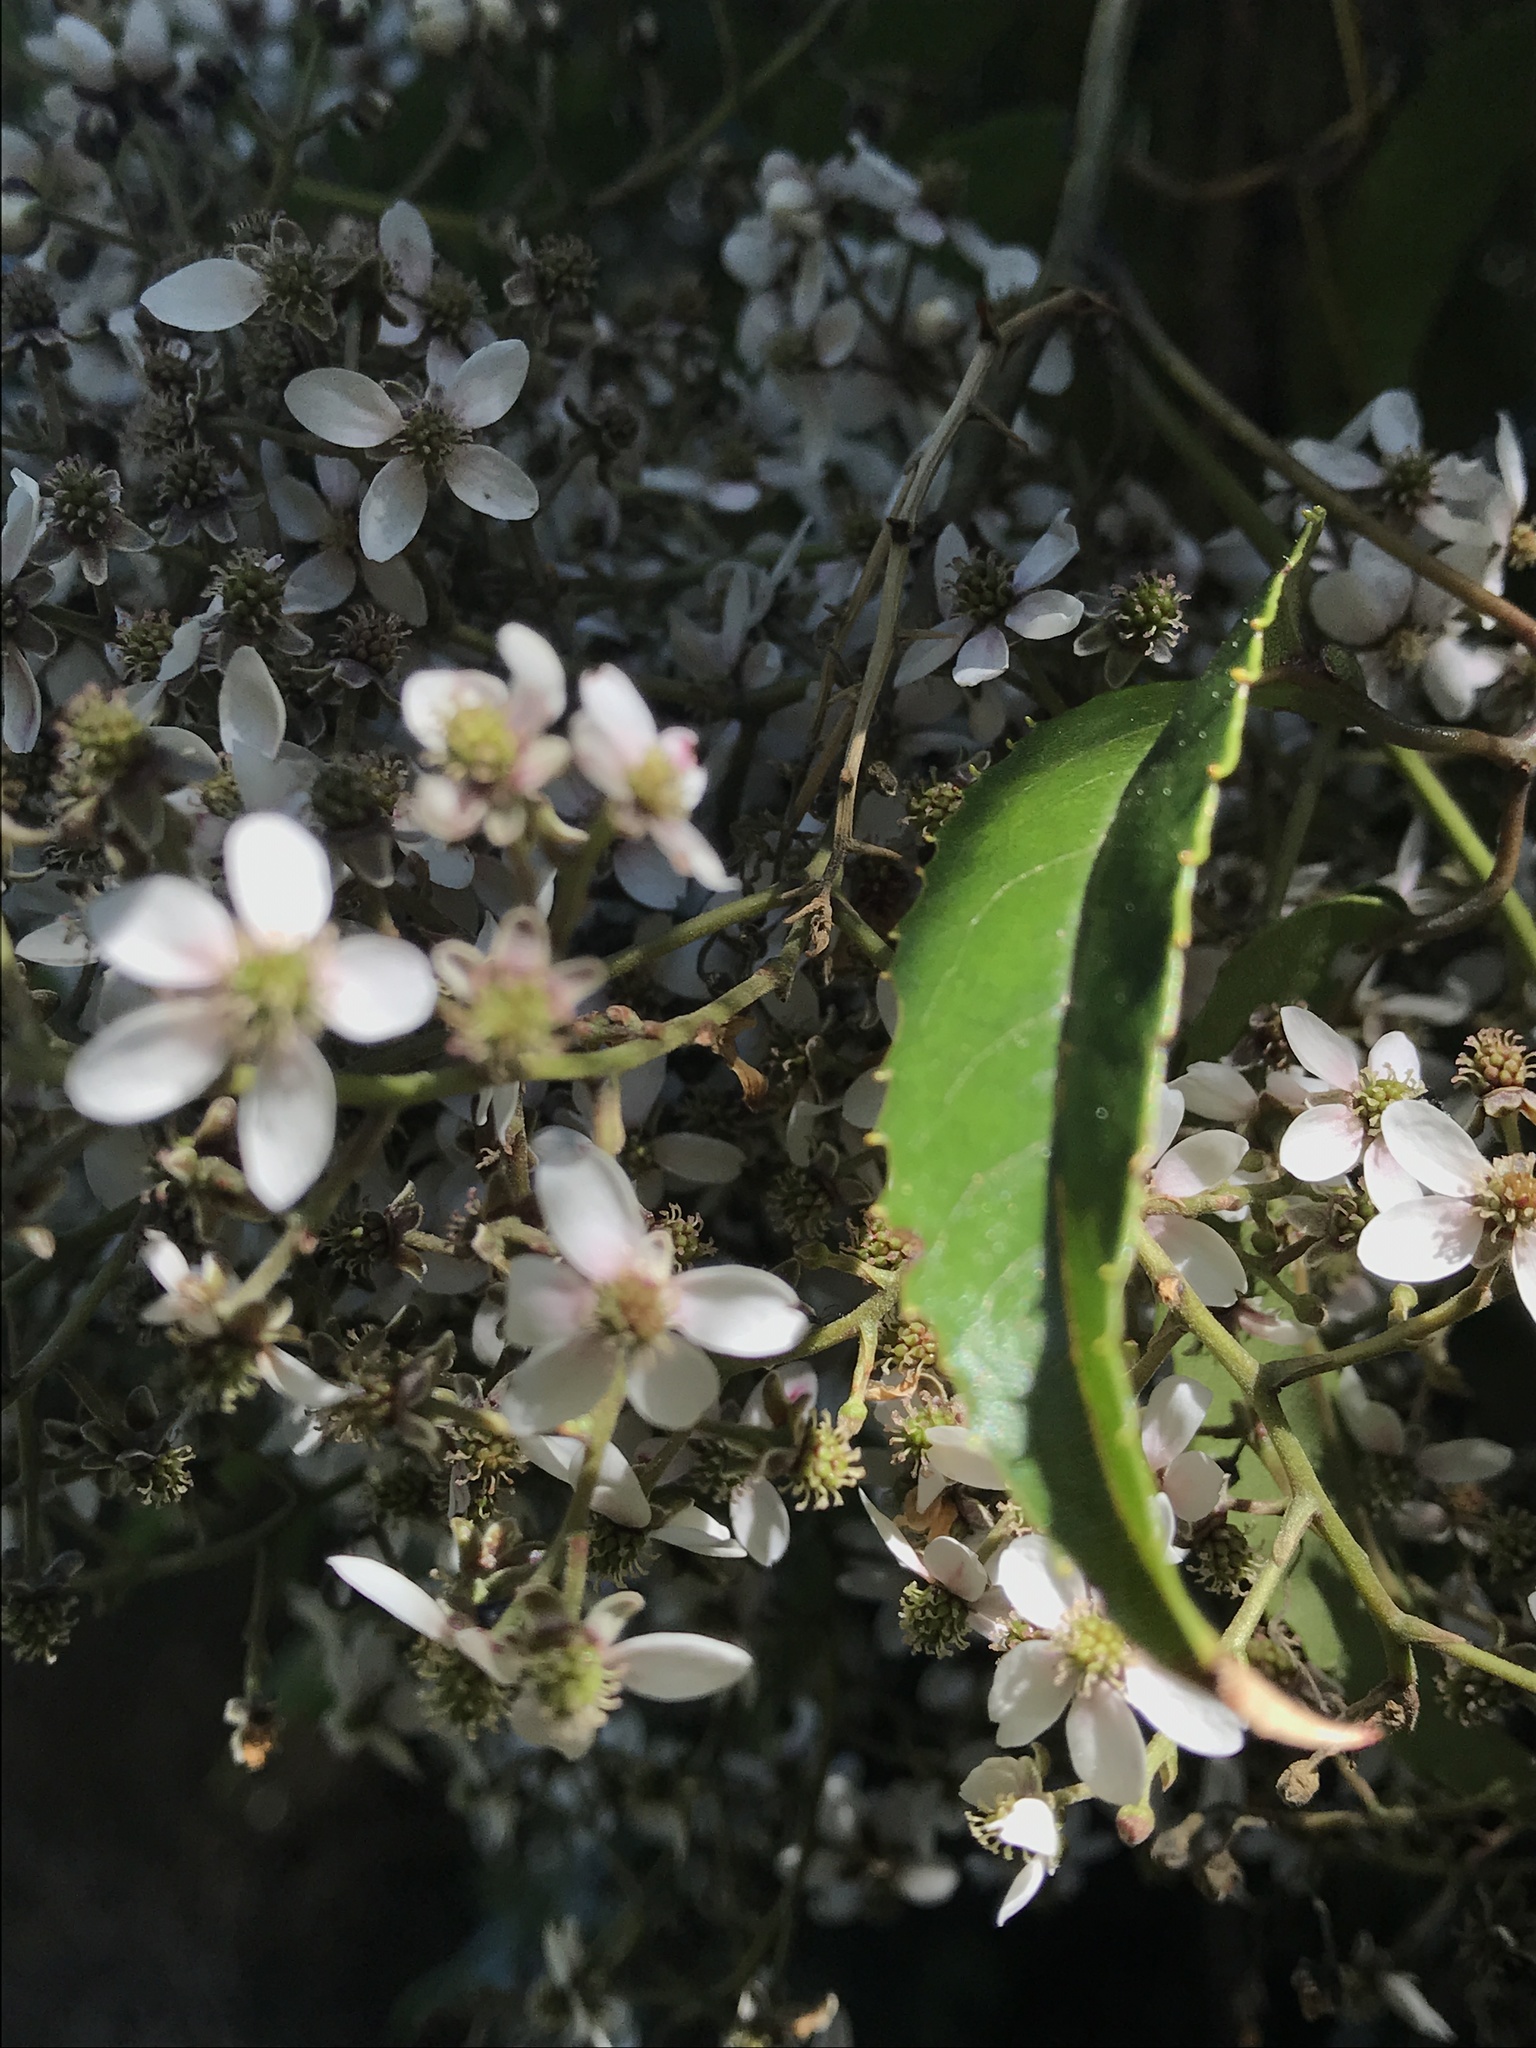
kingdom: Plantae
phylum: Tracheophyta
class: Magnoliopsida
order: Rosales
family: Rosaceae
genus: Rubus
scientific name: Rubus cissoides
